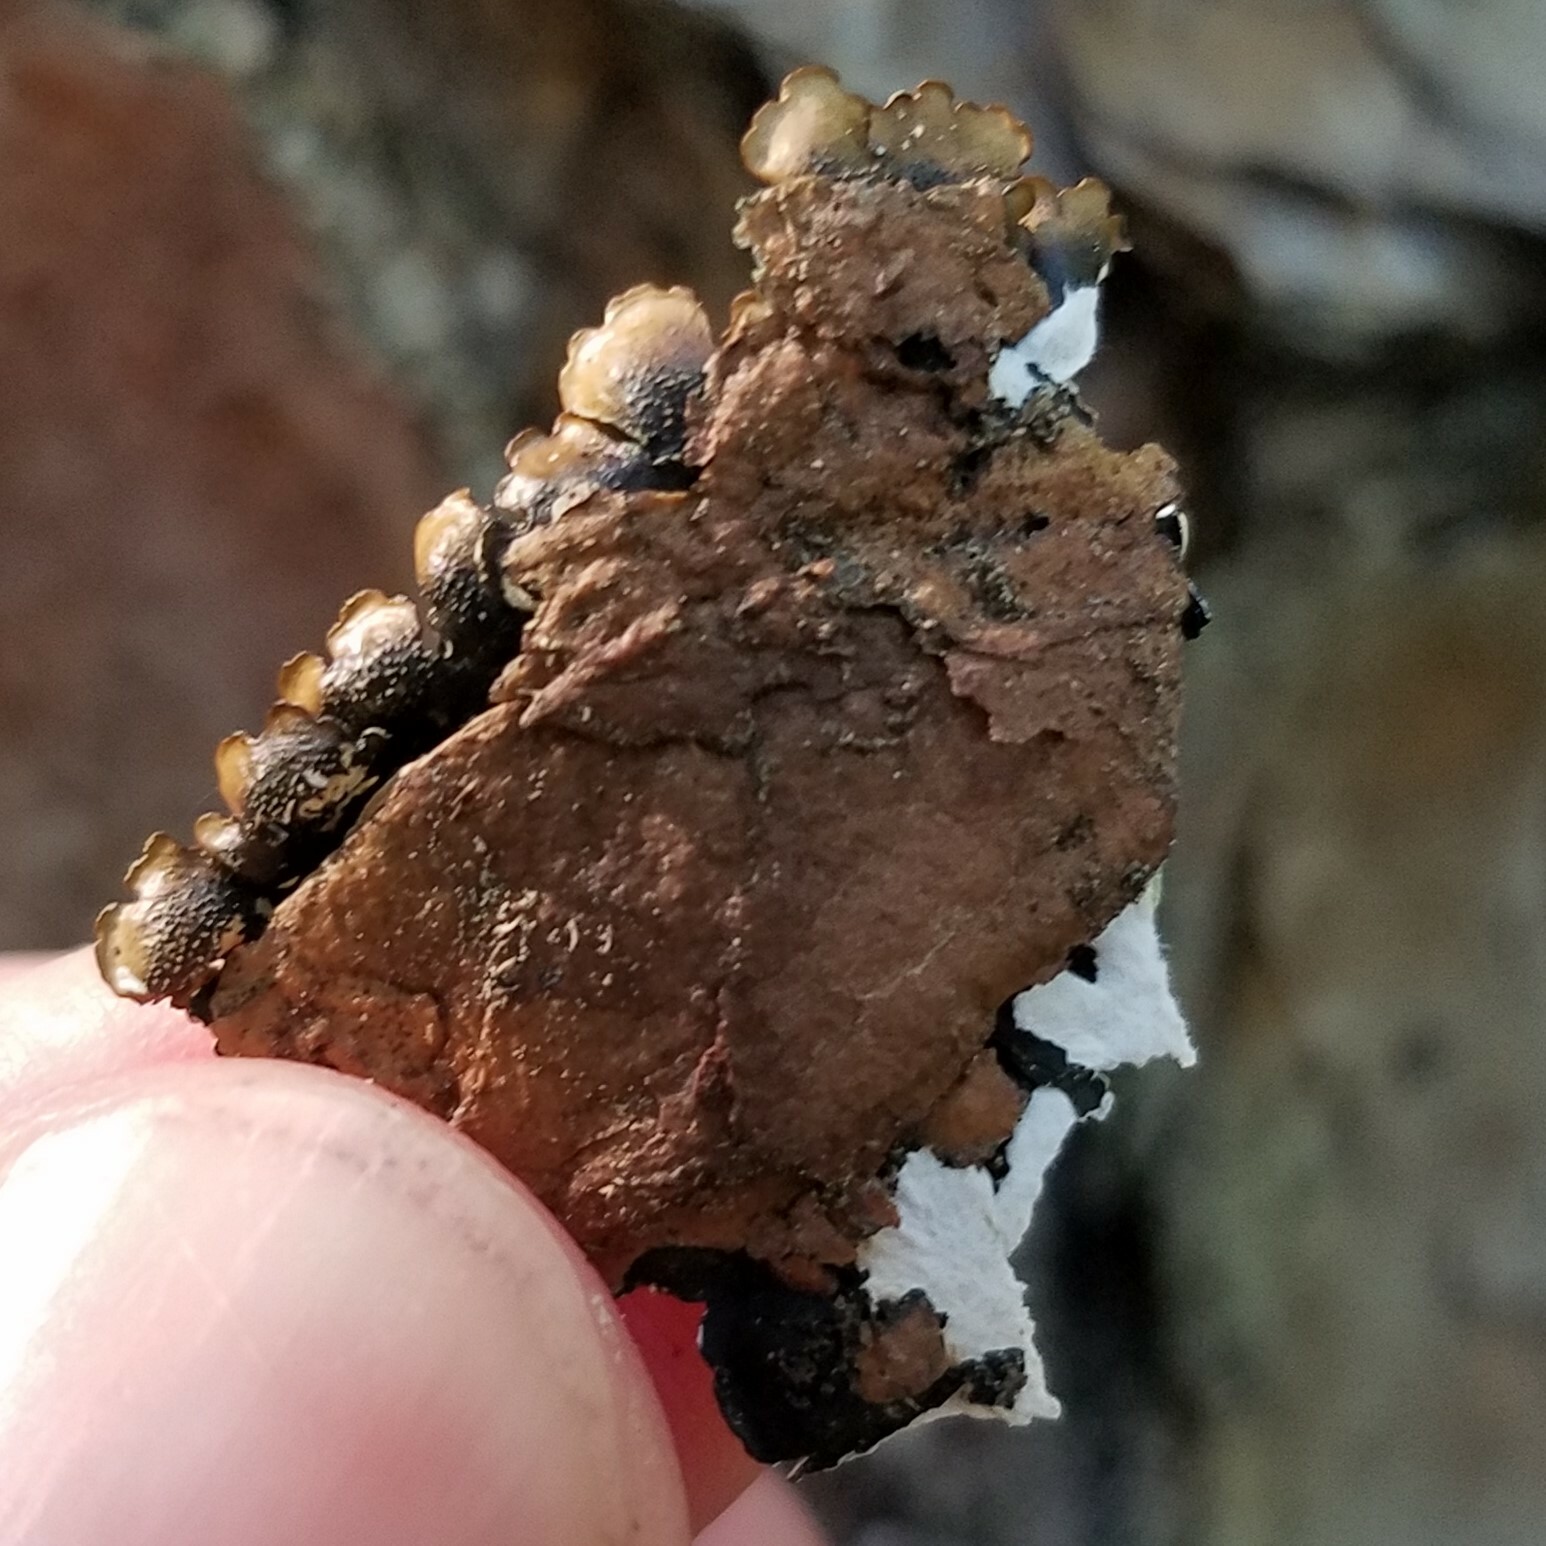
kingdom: Fungi
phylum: Ascomycota
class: Lecanoromycetes
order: Lecanorales
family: Parmeliaceae
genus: Flavoparmelia
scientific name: Flavoparmelia caperata
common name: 40-mile per hour lichen
